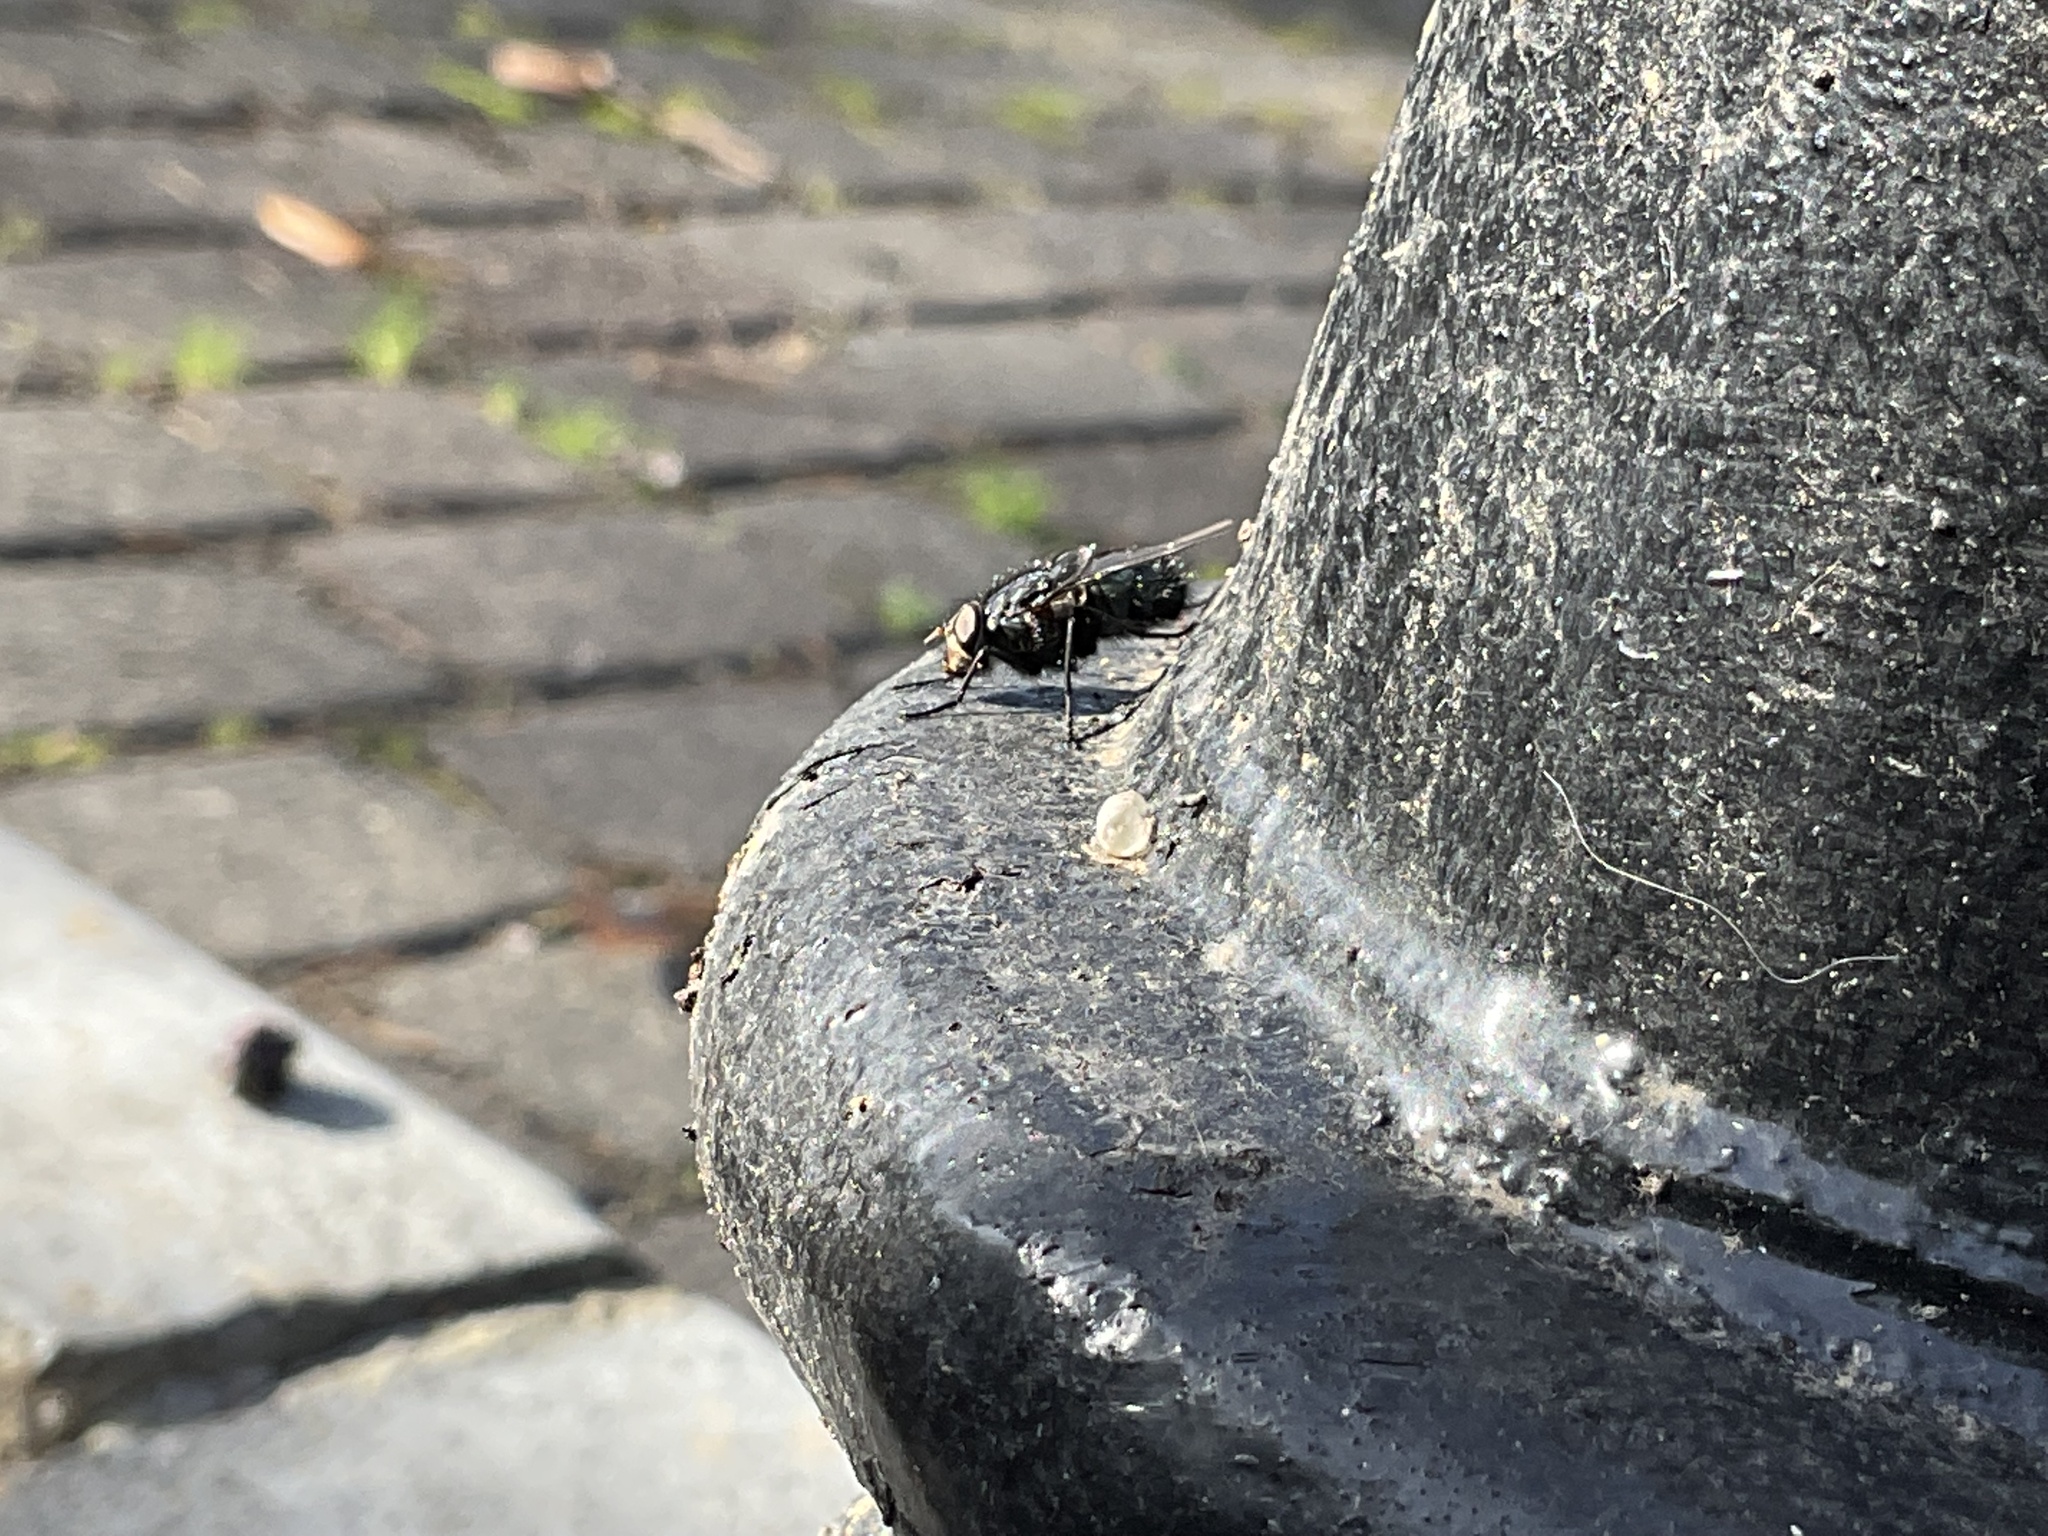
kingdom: Animalia
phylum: Arthropoda
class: Insecta
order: Diptera
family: Calliphoridae
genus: Calliphora
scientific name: Calliphora vicina
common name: Common blow flie
